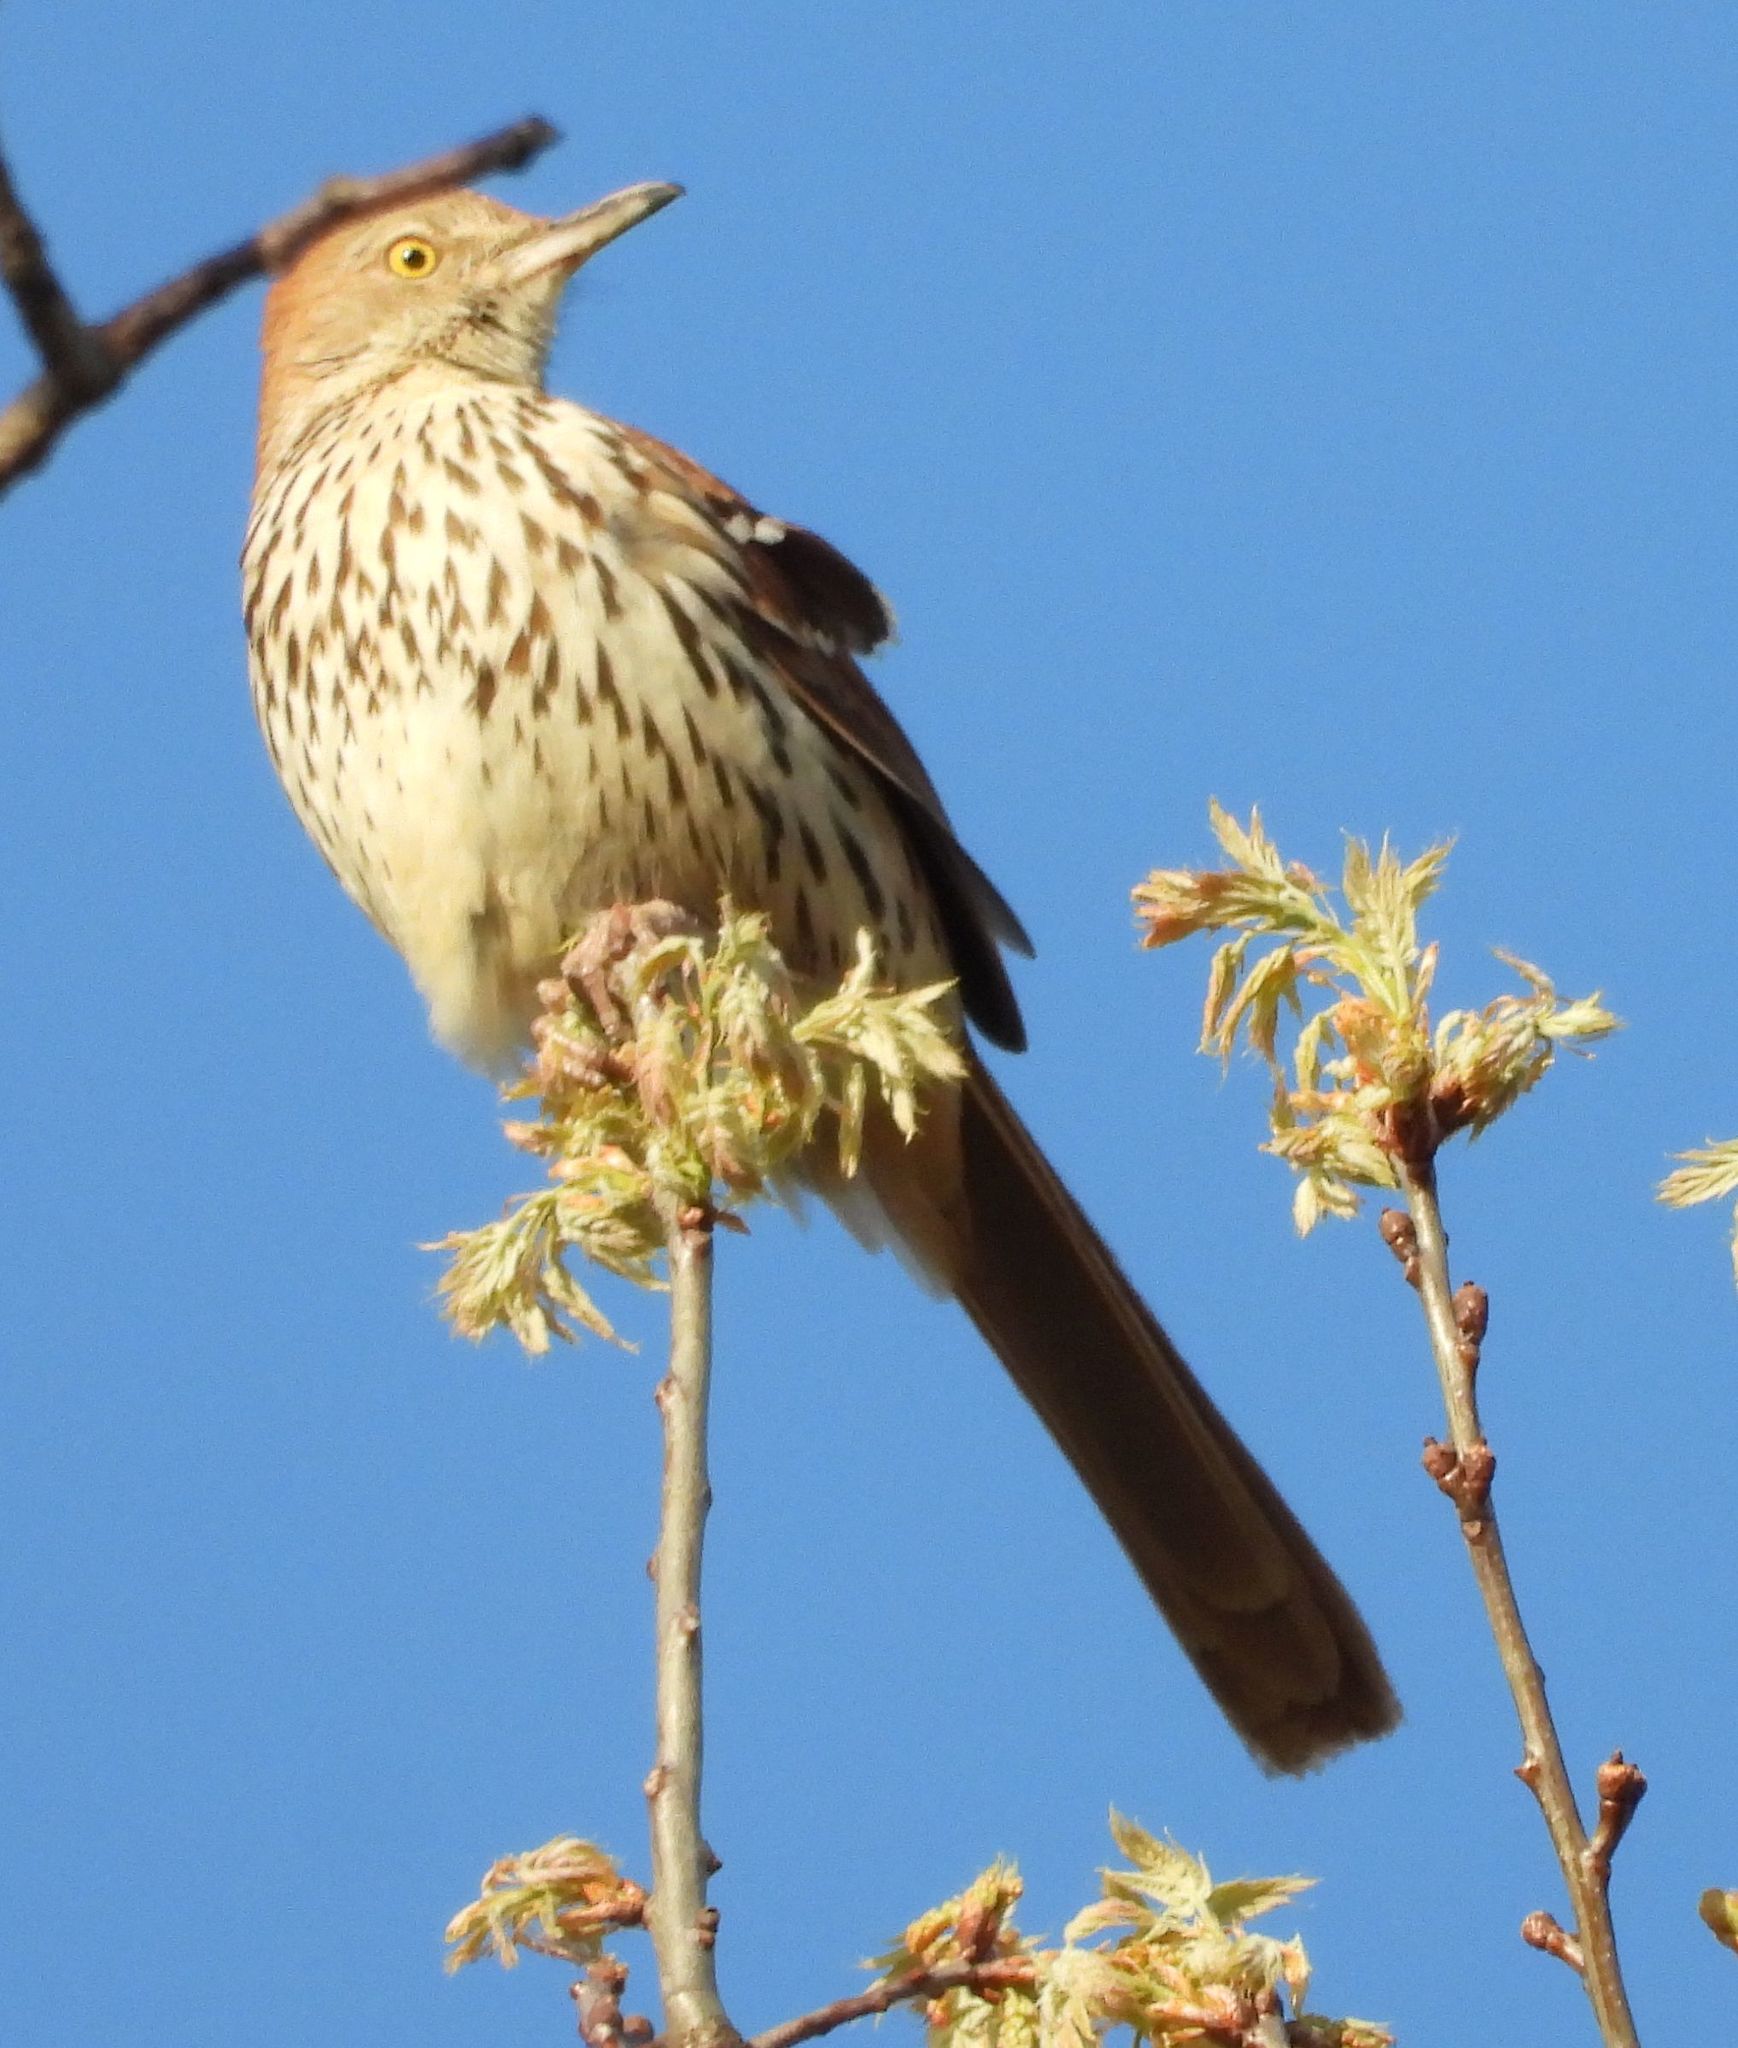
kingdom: Animalia
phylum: Chordata
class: Aves
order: Passeriformes
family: Mimidae
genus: Toxostoma
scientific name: Toxostoma rufum
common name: Brown thrasher
